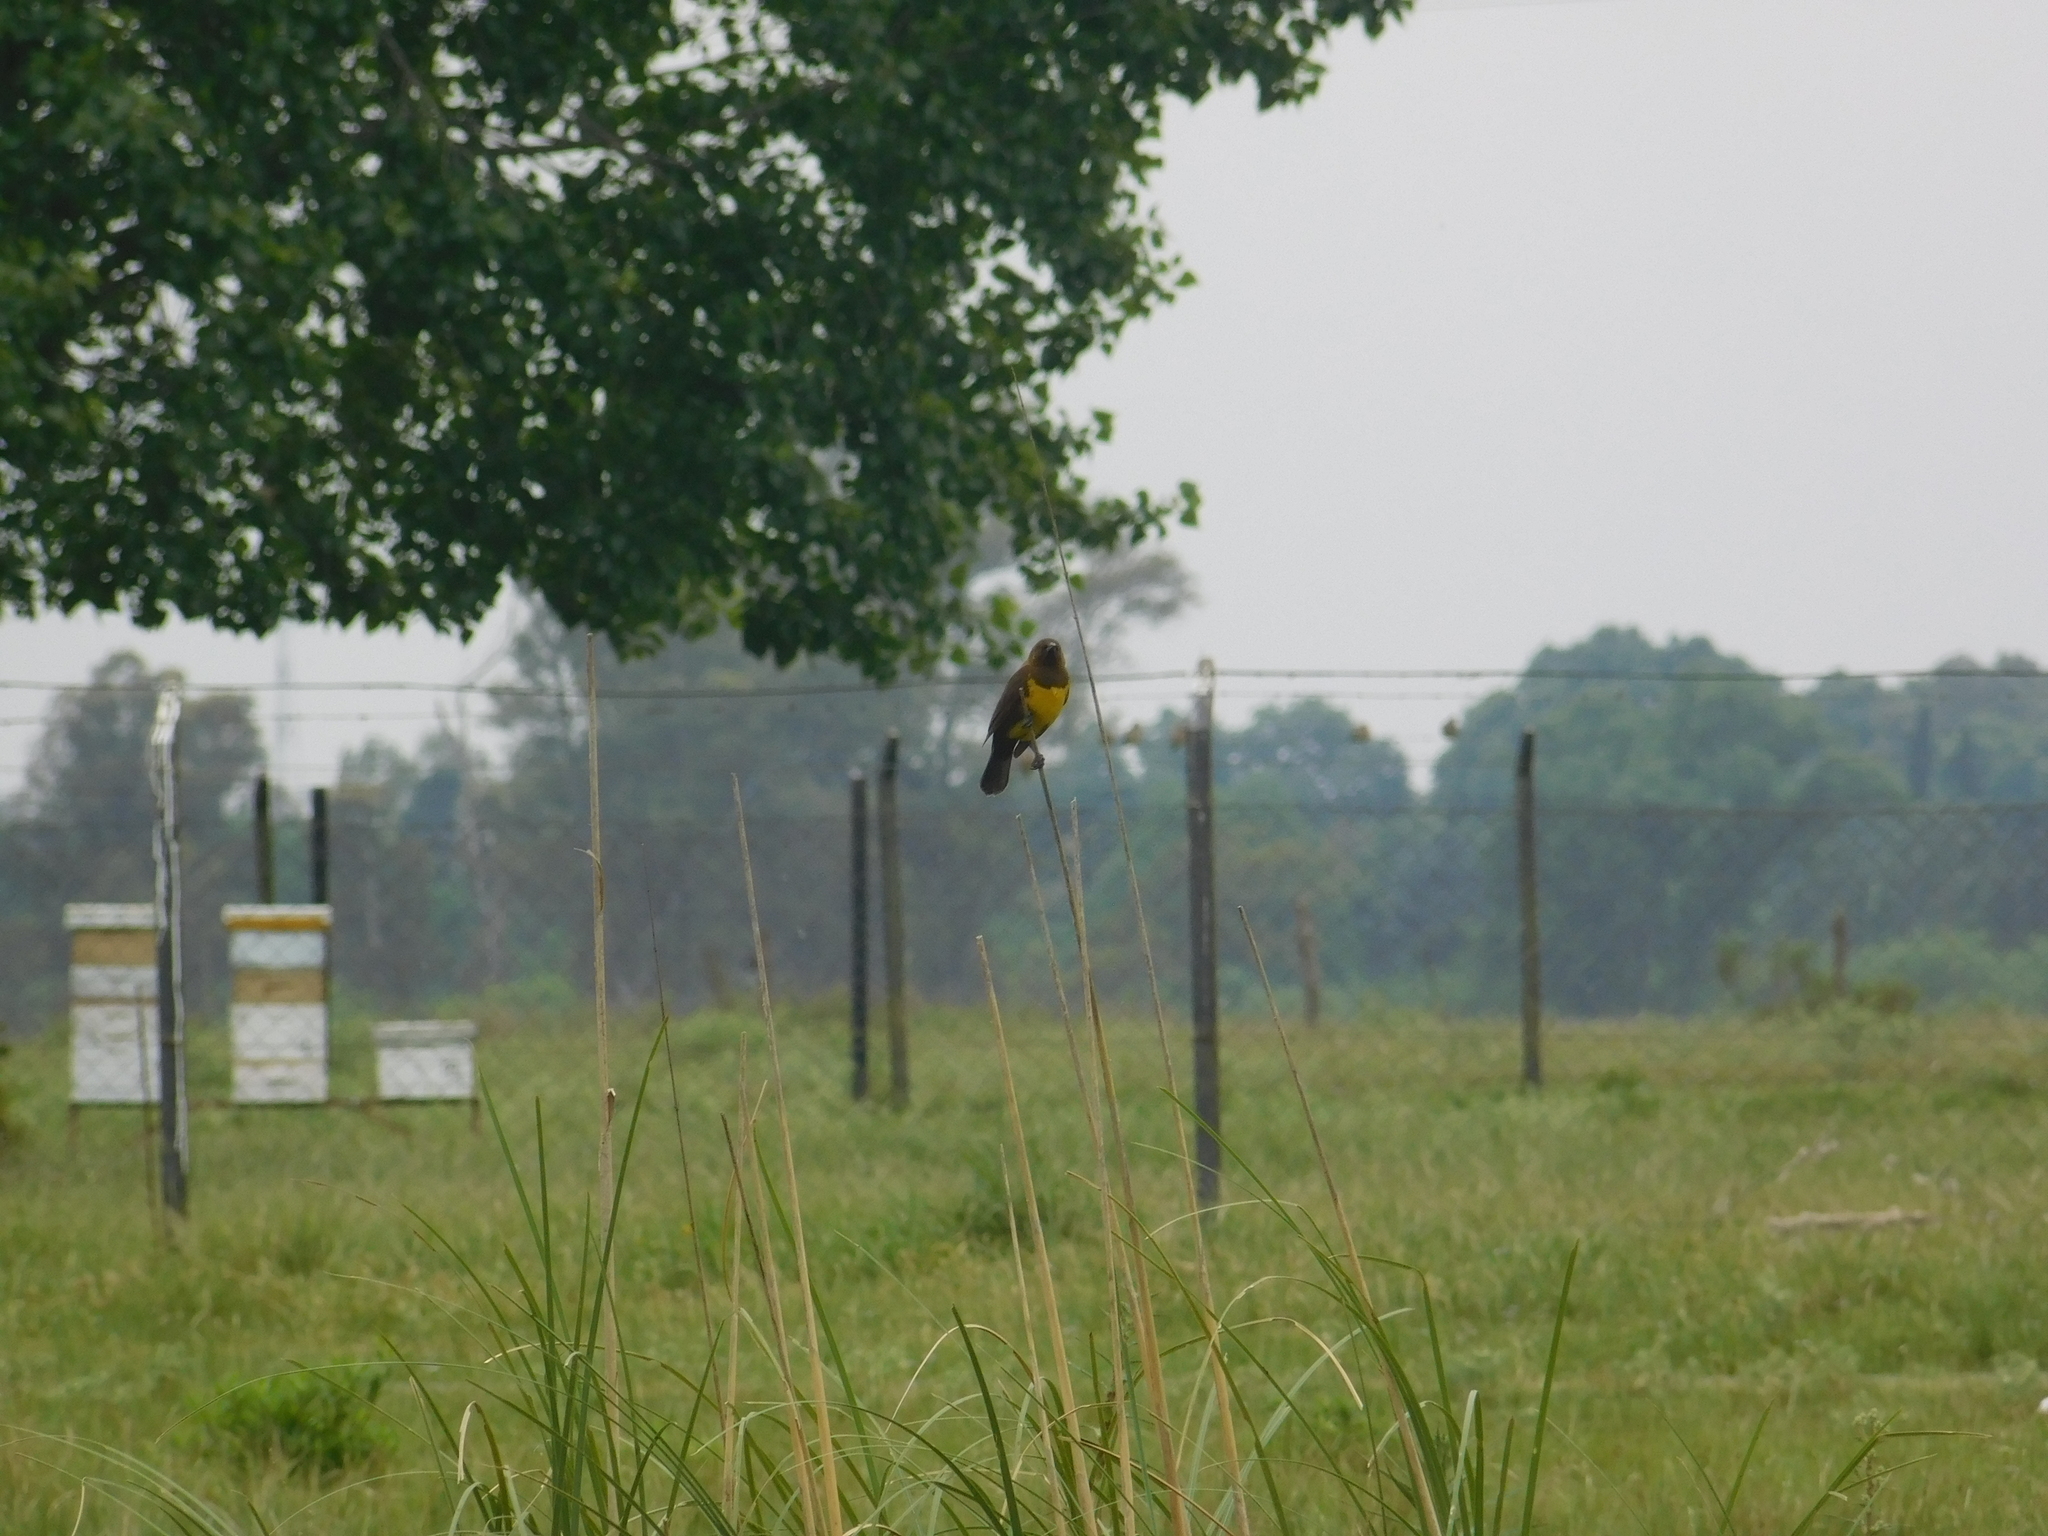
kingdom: Animalia
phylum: Chordata
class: Aves
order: Passeriformes
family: Icteridae
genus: Pseudoleistes
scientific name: Pseudoleistes virescens
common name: Brown-and-yellow marshbird
